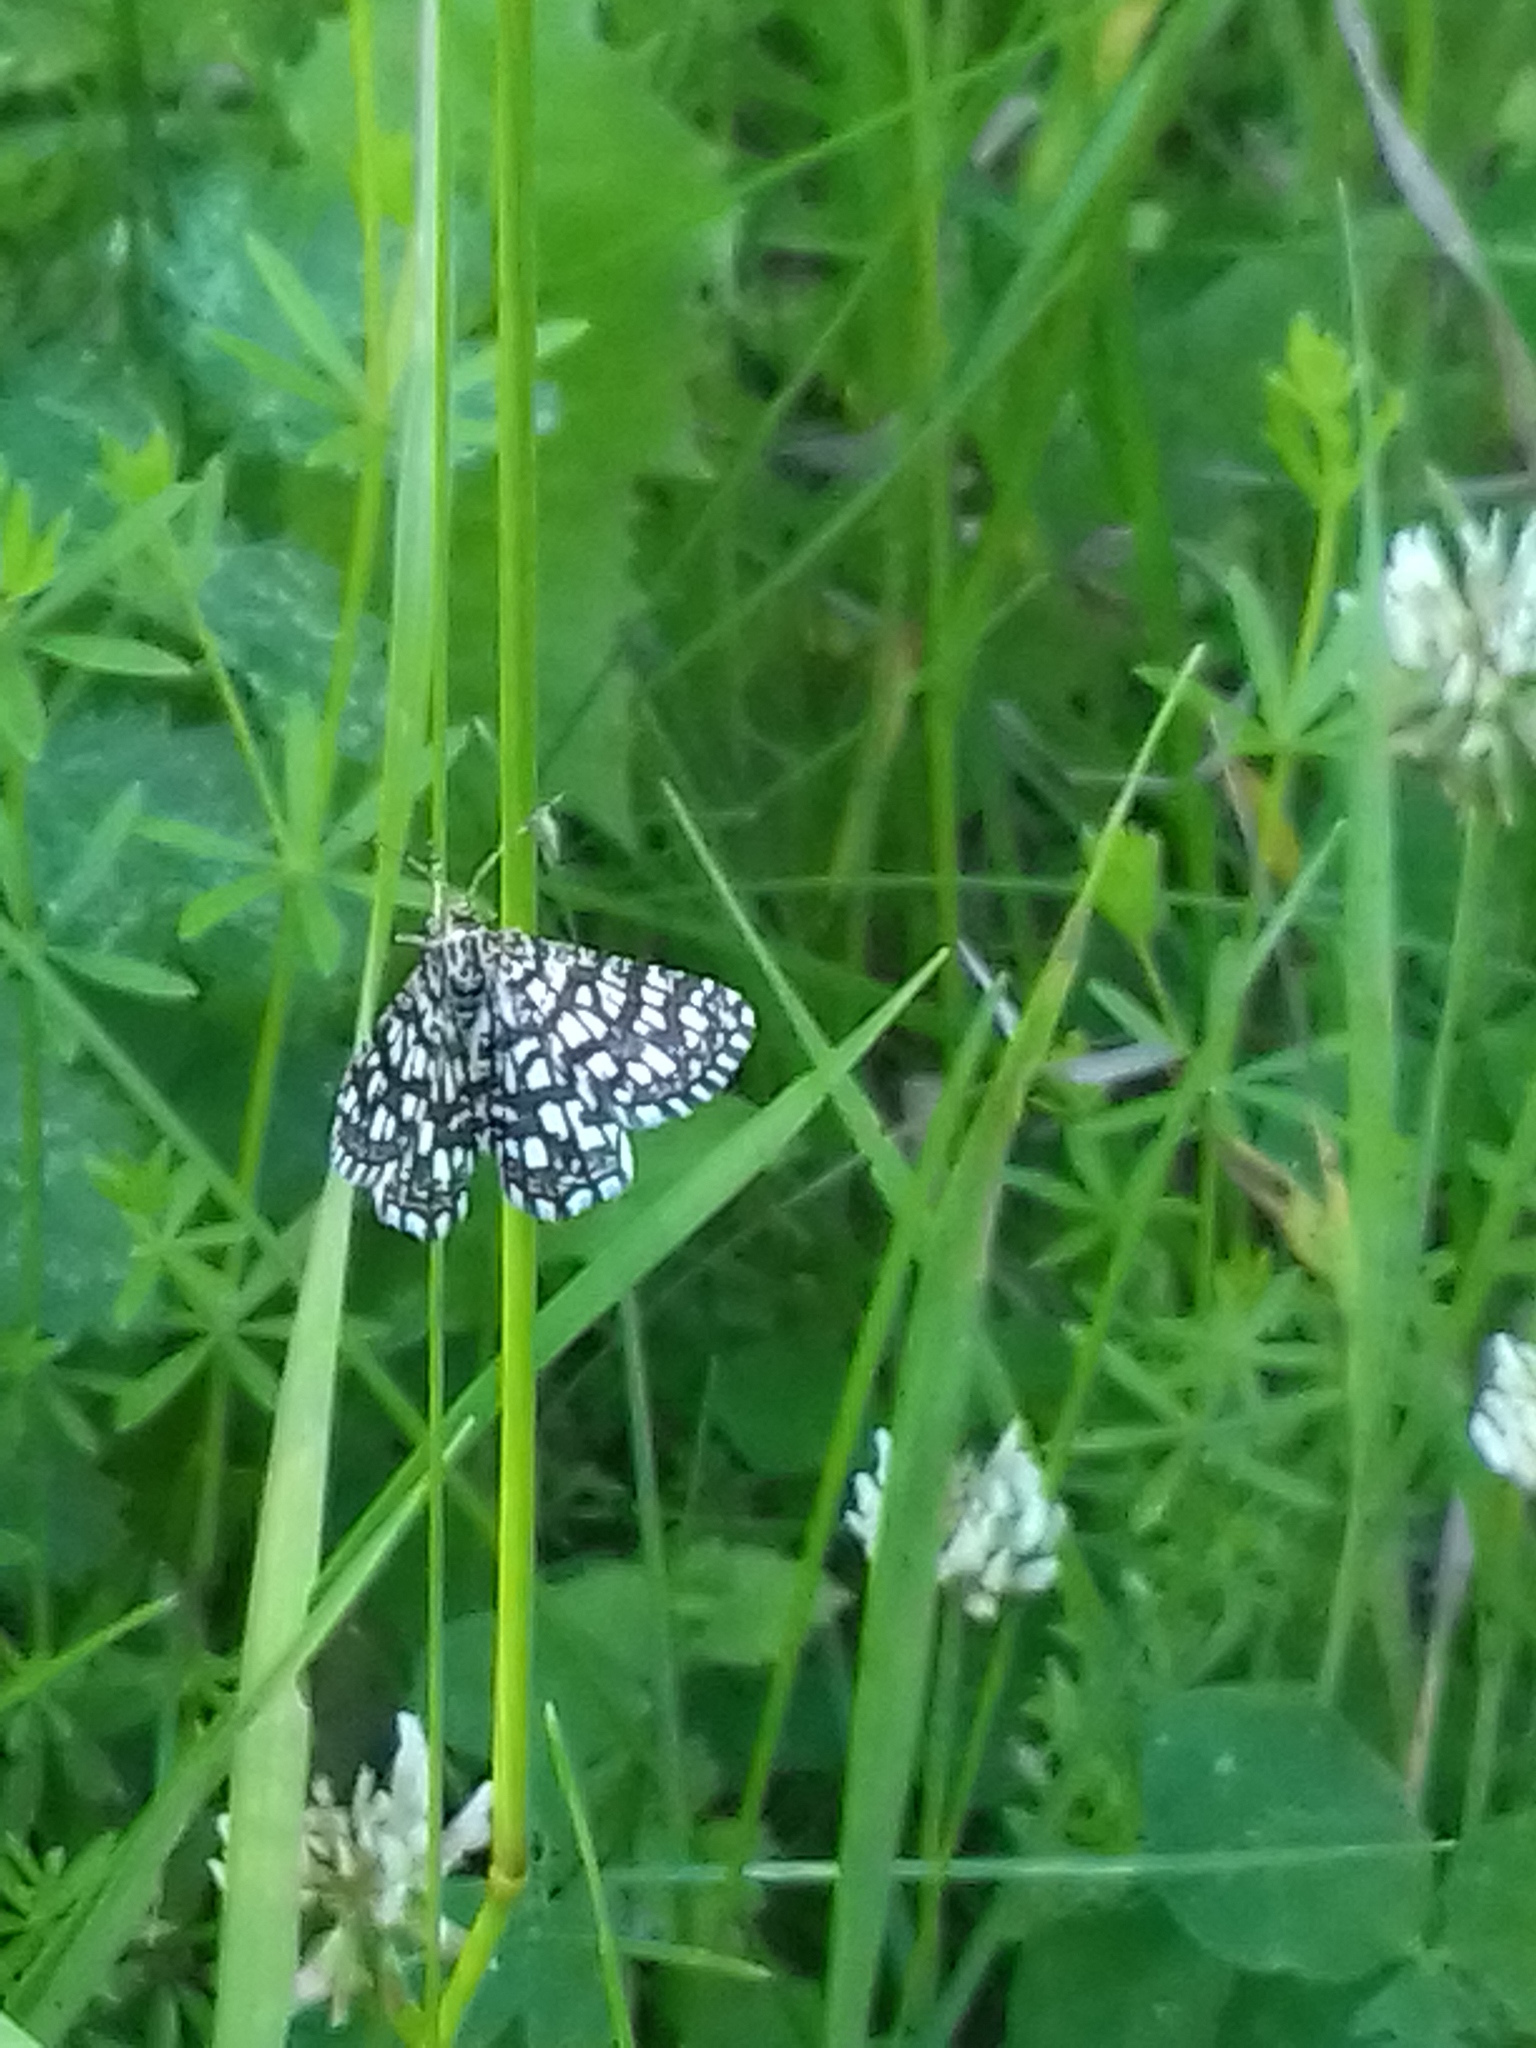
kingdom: Animalia
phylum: Arthropoda
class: Insecta
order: Lepidoptera
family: Geometridae
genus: Chiasmia
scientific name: Chiasmia clathrata
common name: Latticed heath
